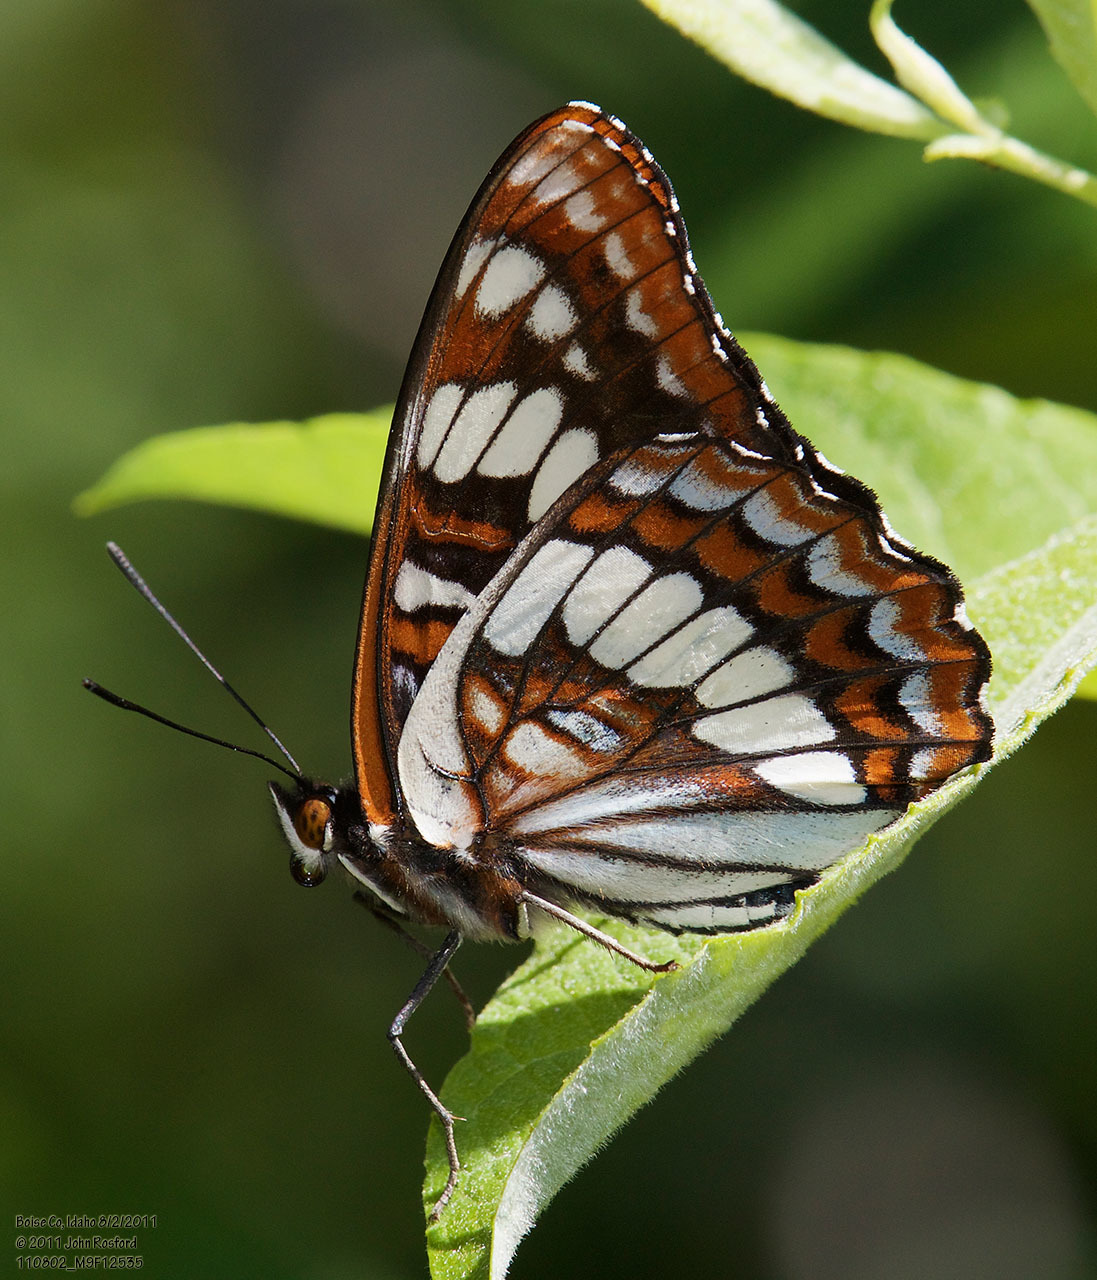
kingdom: Animalia
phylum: Arthropoda
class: Insecta
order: Lepidoptera
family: Nymphalidae
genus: Limenitis
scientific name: Limenitis lorquini
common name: Lorquin's admiral
